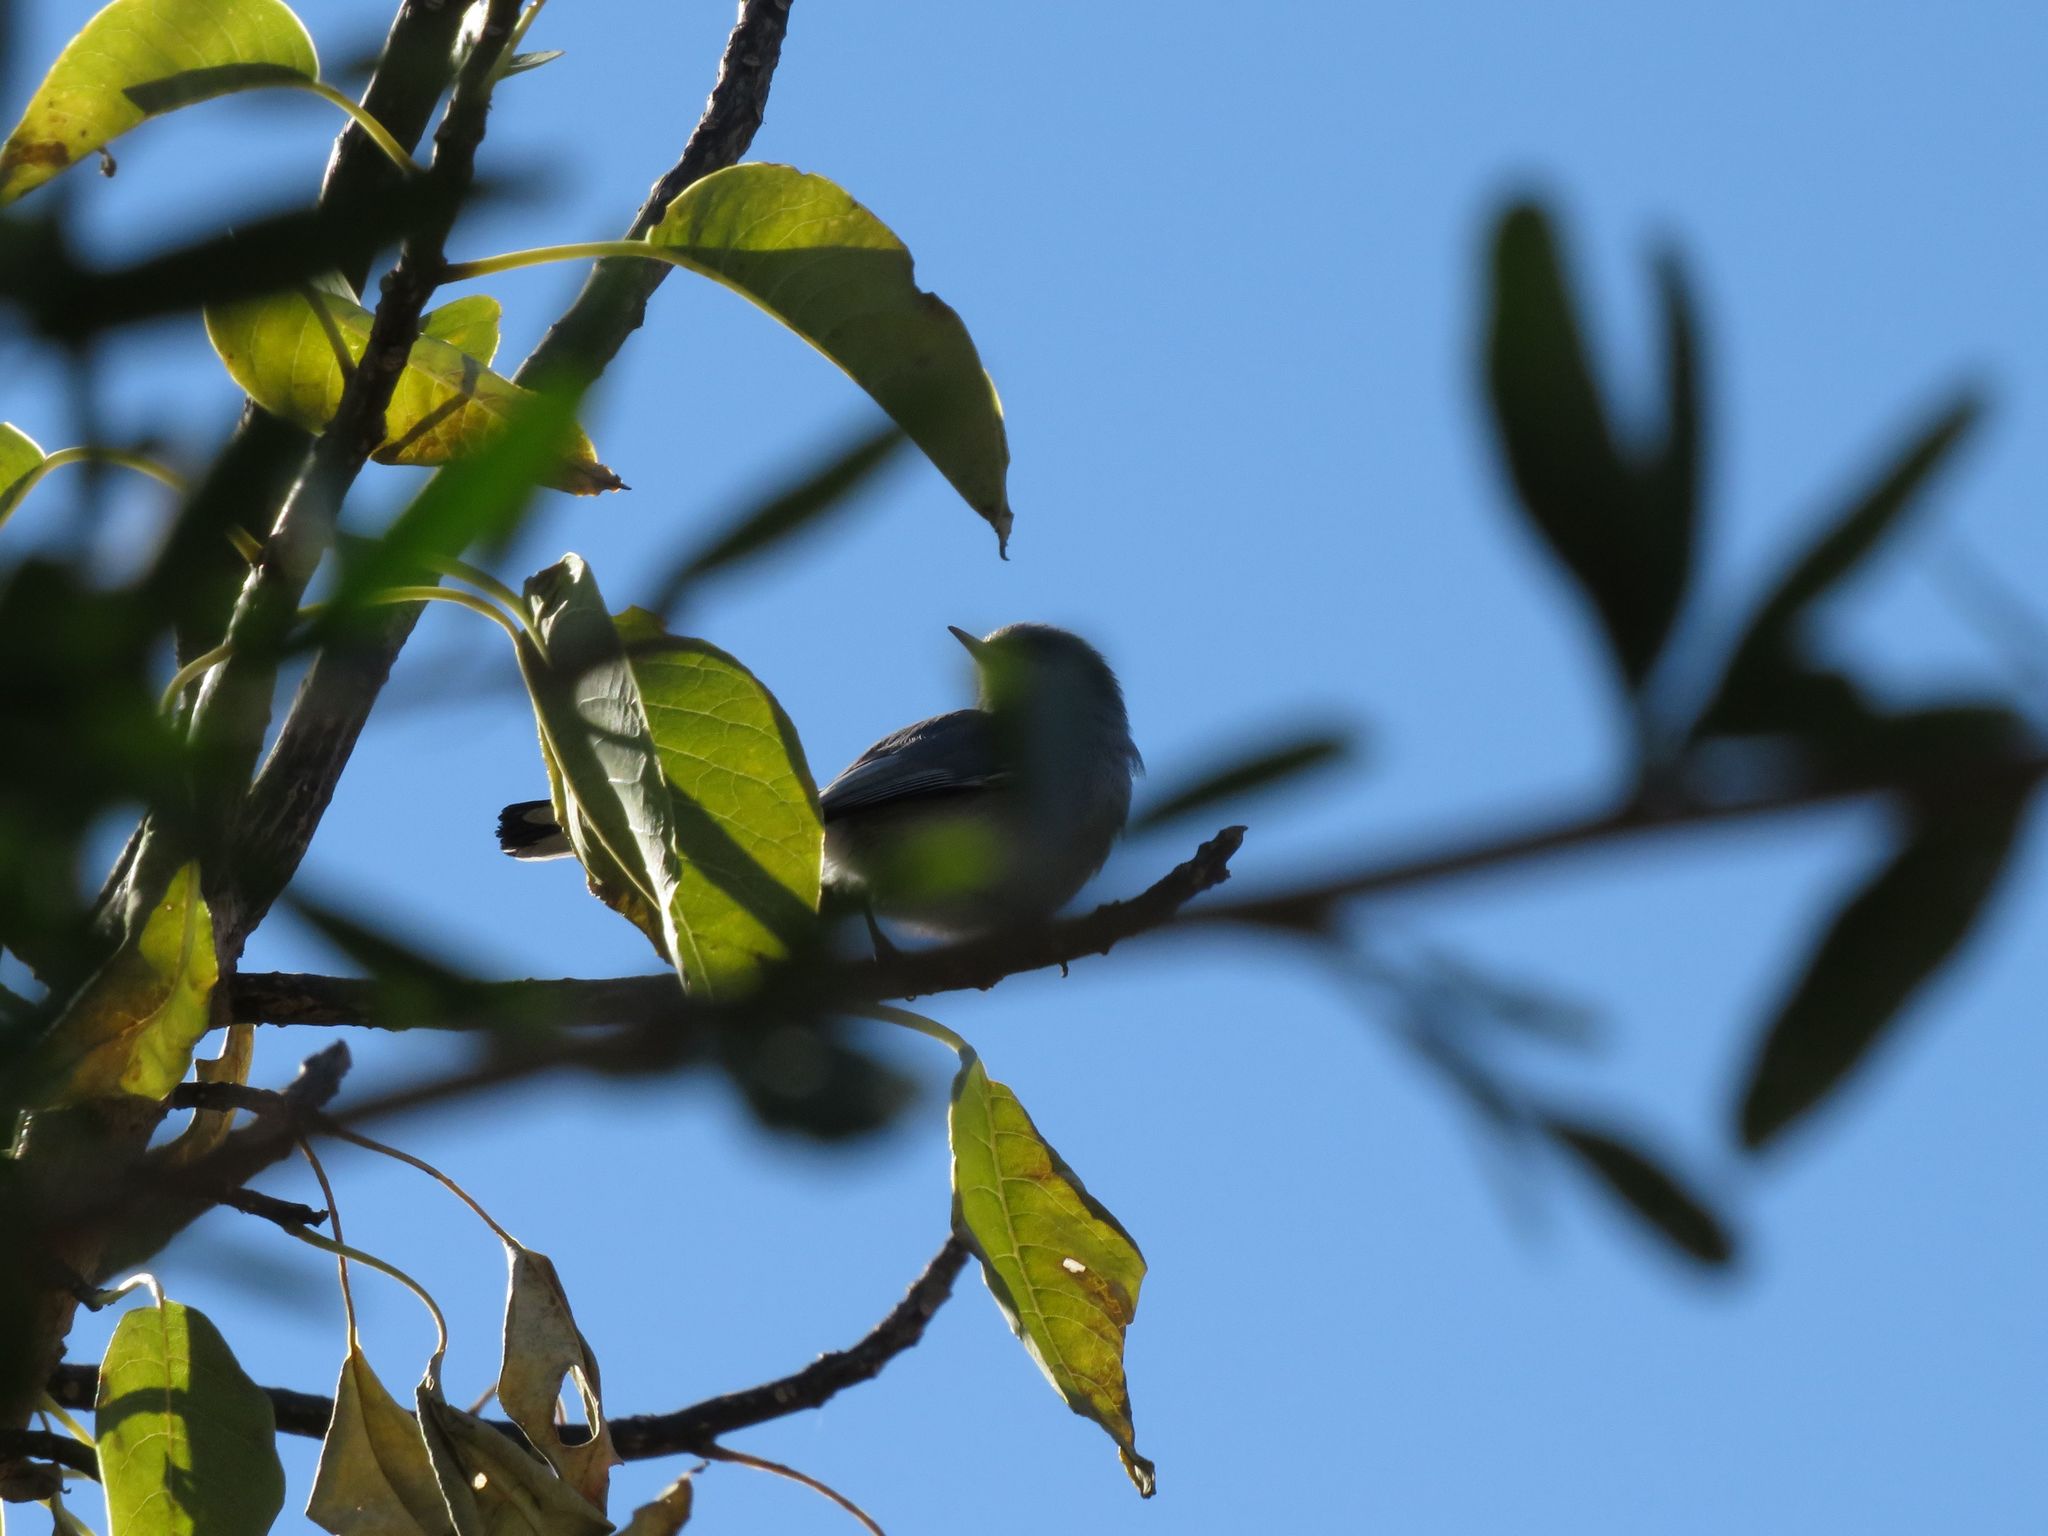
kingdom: Animalia
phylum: Chordata
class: Aves
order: Passeriformes
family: Polioptilidae
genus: Polioptila
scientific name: Polioptila dumicola
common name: Masked gnatcatcher
